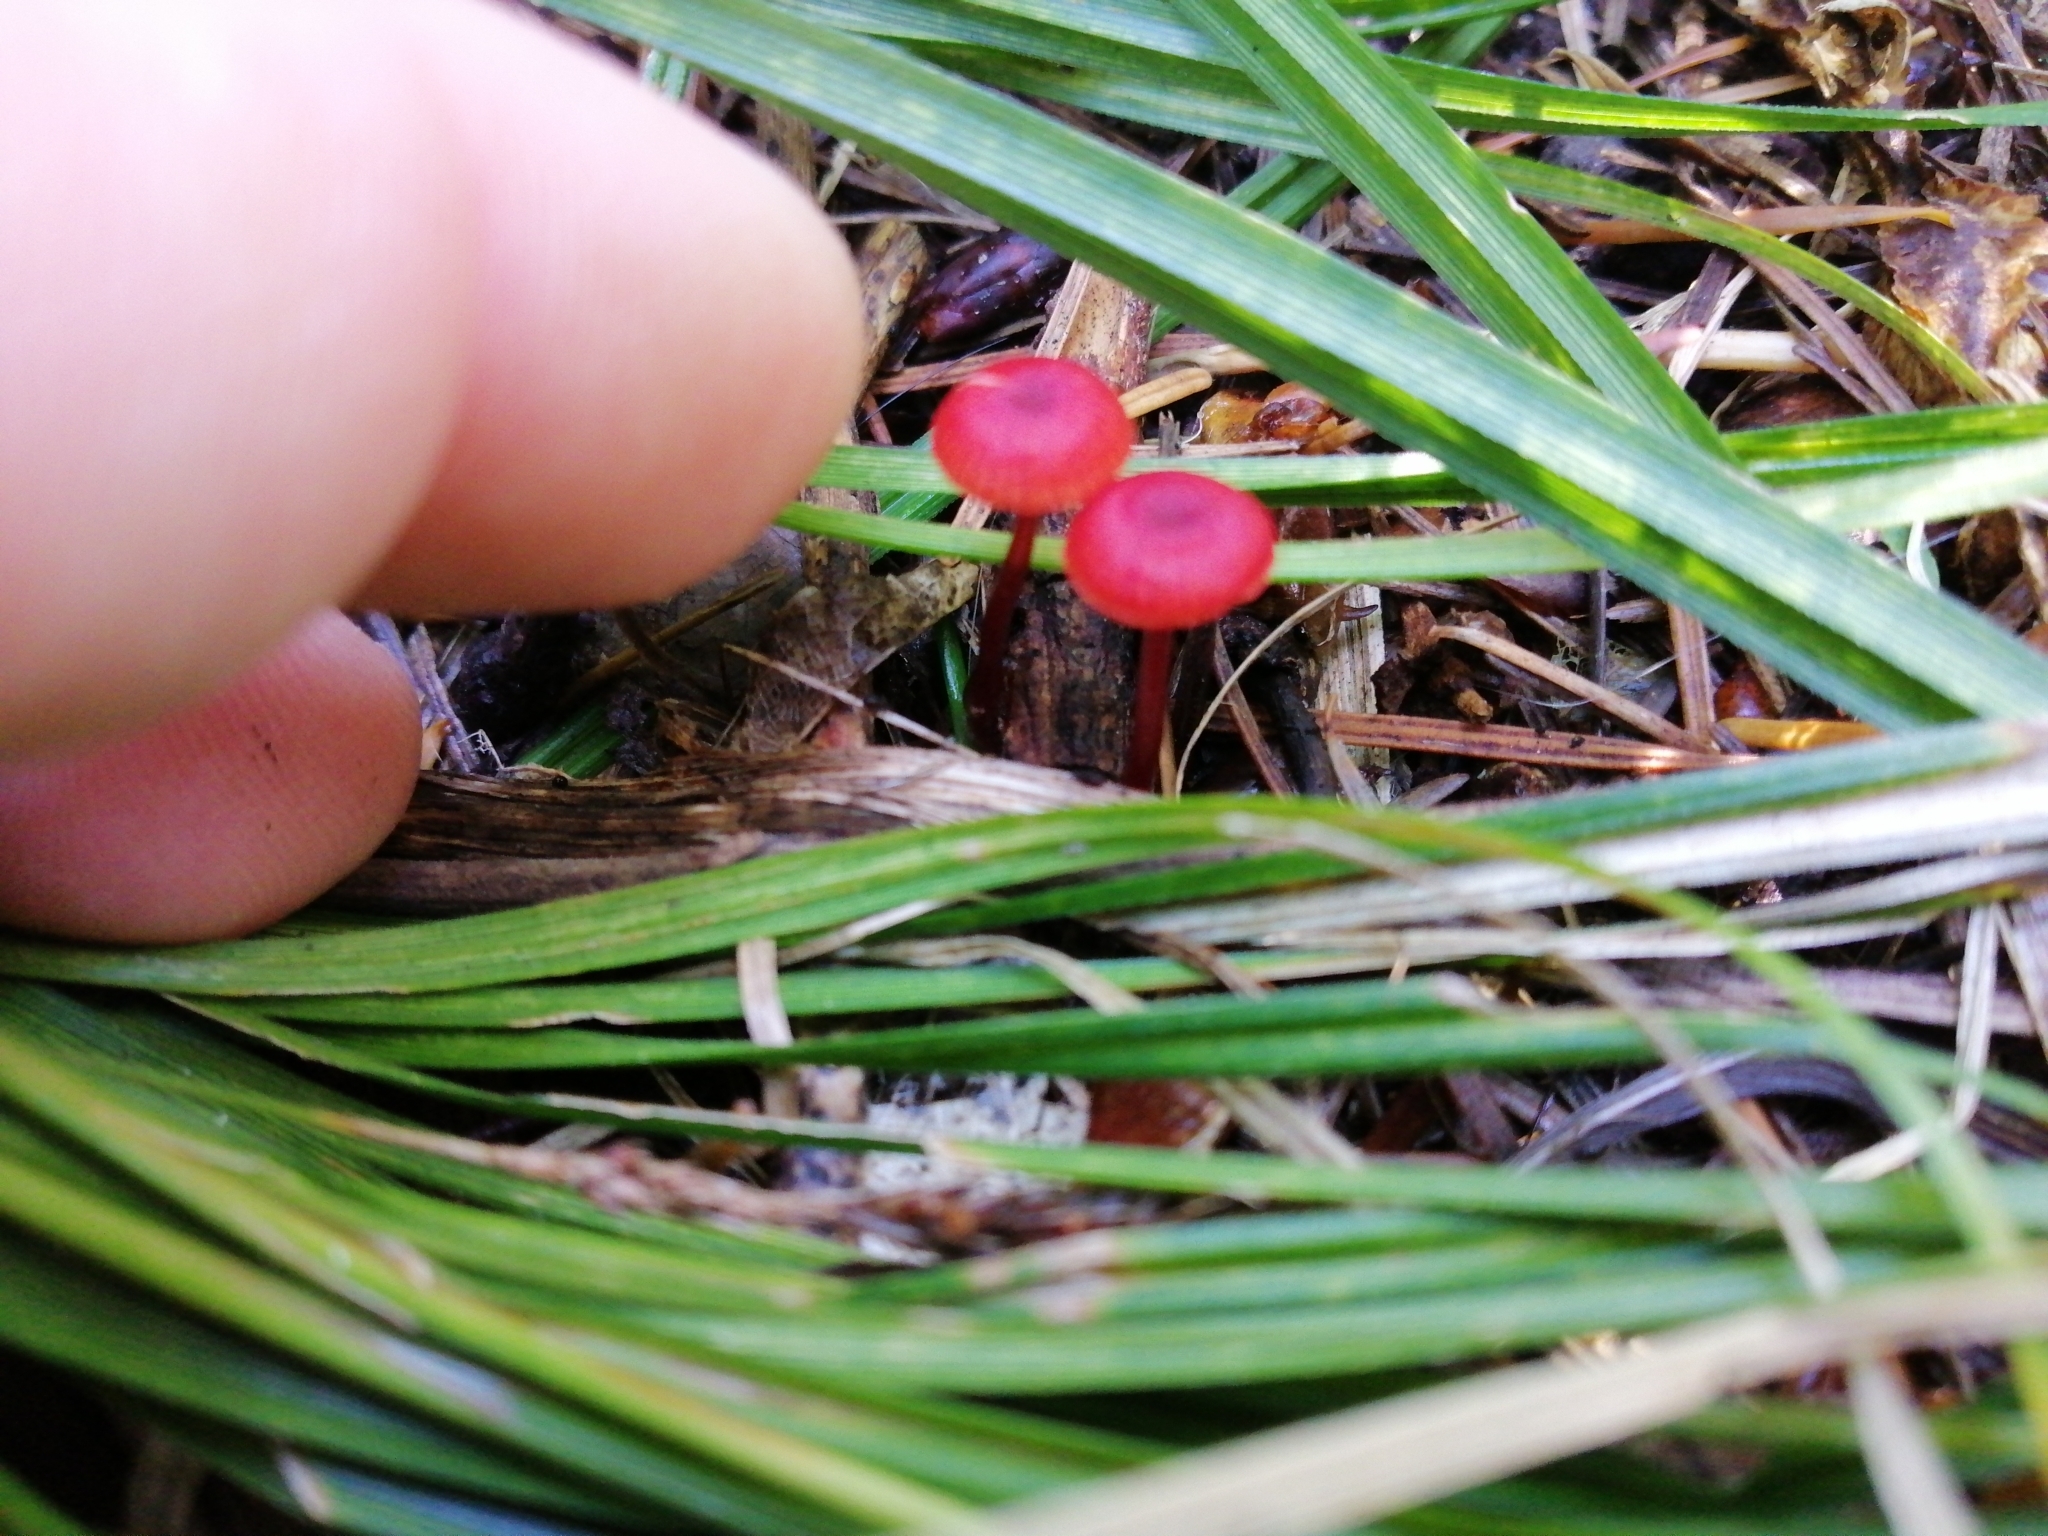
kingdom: Fungi
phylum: Basidiomycota
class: Agaricomycetes
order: Agaricales
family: Mycenaceae
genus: Cruentomycena
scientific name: Cruentomycena viscidocruenta
